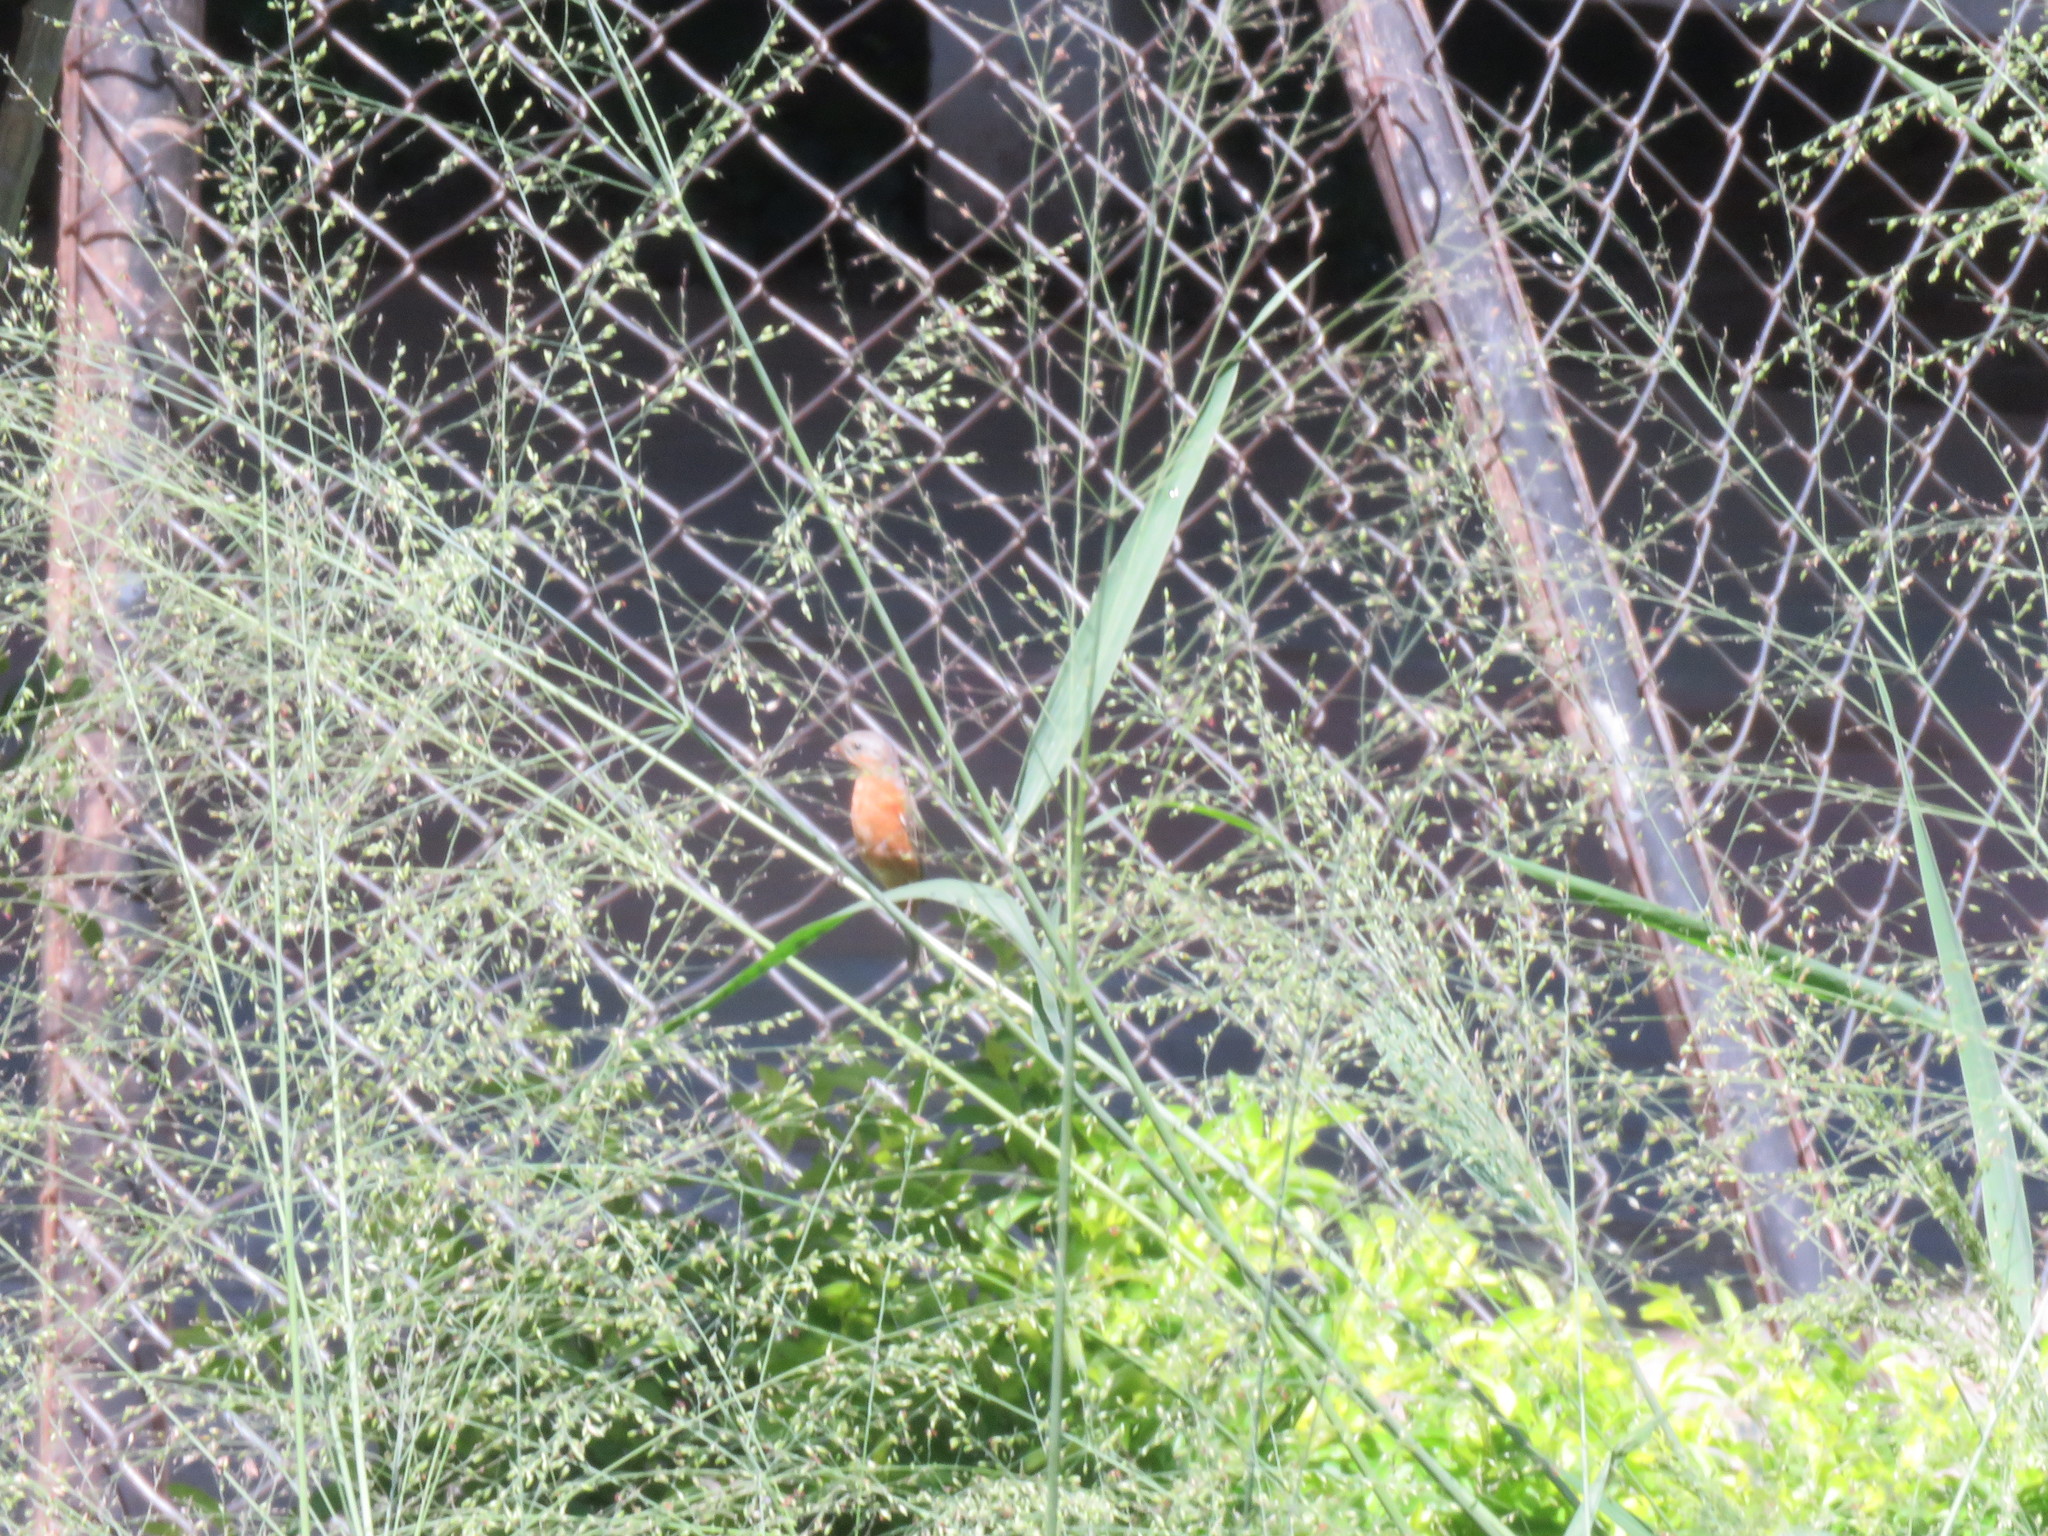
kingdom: Animalia
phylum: Chordata
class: Aves
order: Passeriformes
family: Thraupidae
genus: Sporophila
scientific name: Sporophila hypoxantha
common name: Tawny-bellied seedeater
